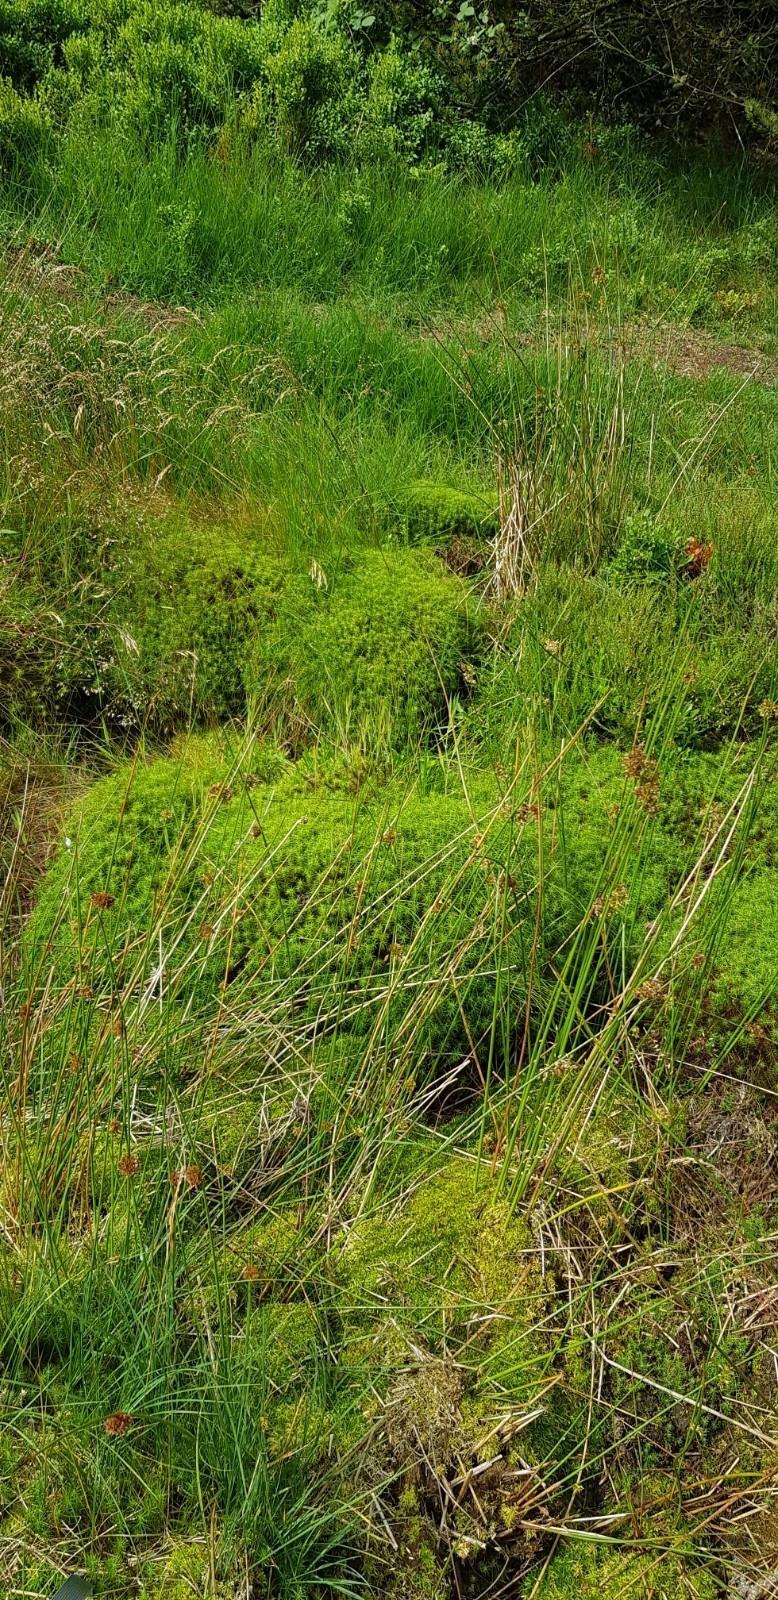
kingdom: Plantae
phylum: Bryophyta
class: Sphagnopsida
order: Sphagnales
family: Sphagnaceae
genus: Sphagnum
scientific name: Sphagnum fimbriatum
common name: Fringed peat moss
